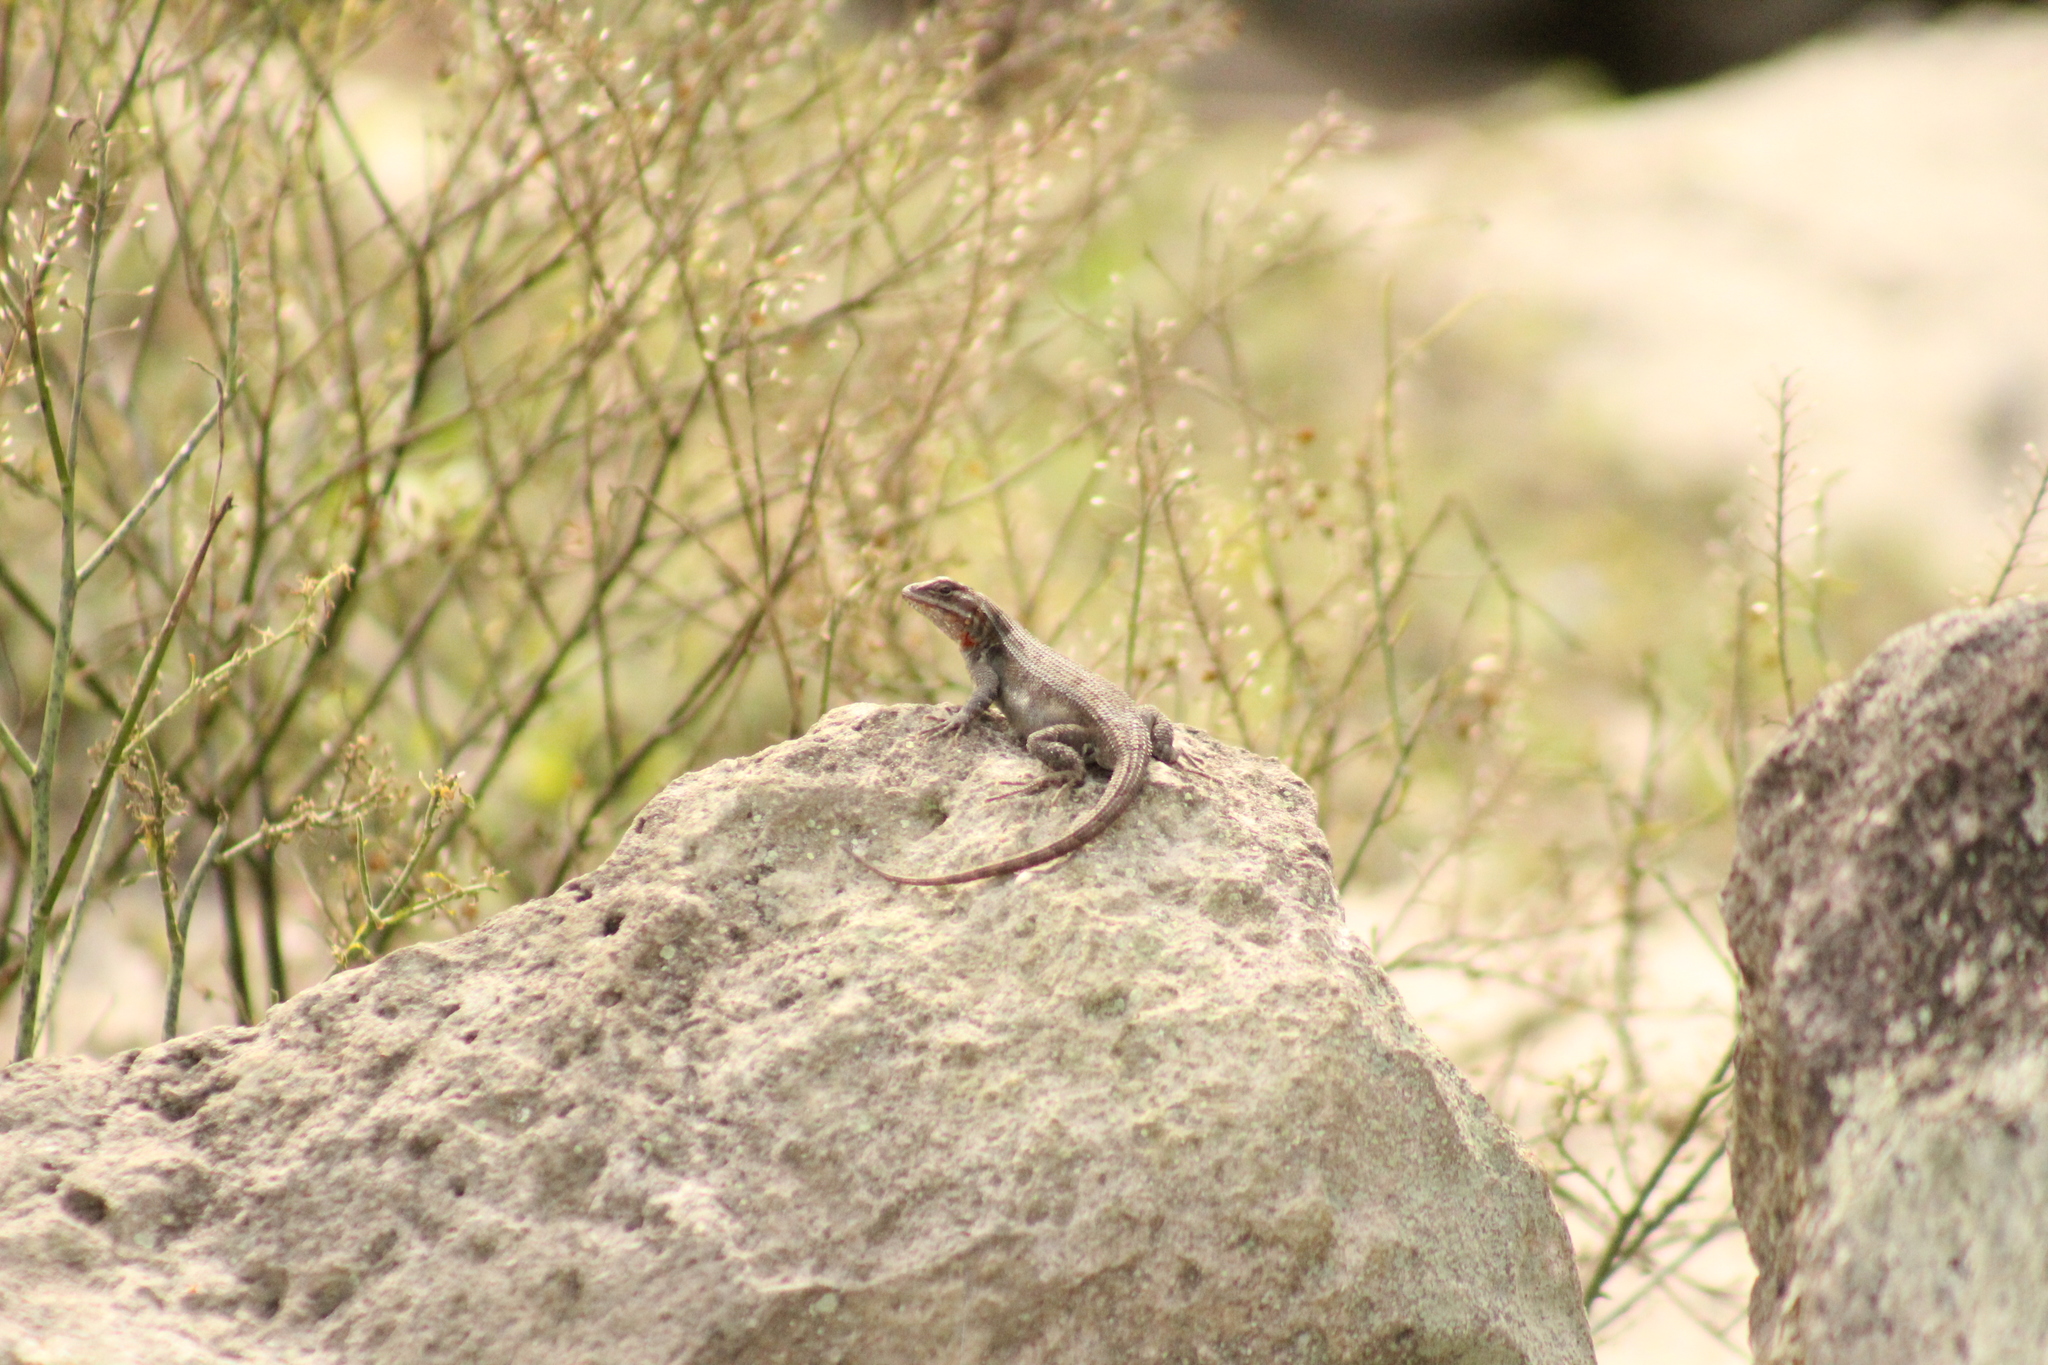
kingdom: Animalia
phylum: Chordata
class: Squamata
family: Phrynosomatidae
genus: Sceloporus
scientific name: Sceloporus variabilis
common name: Rosebelly lizard
